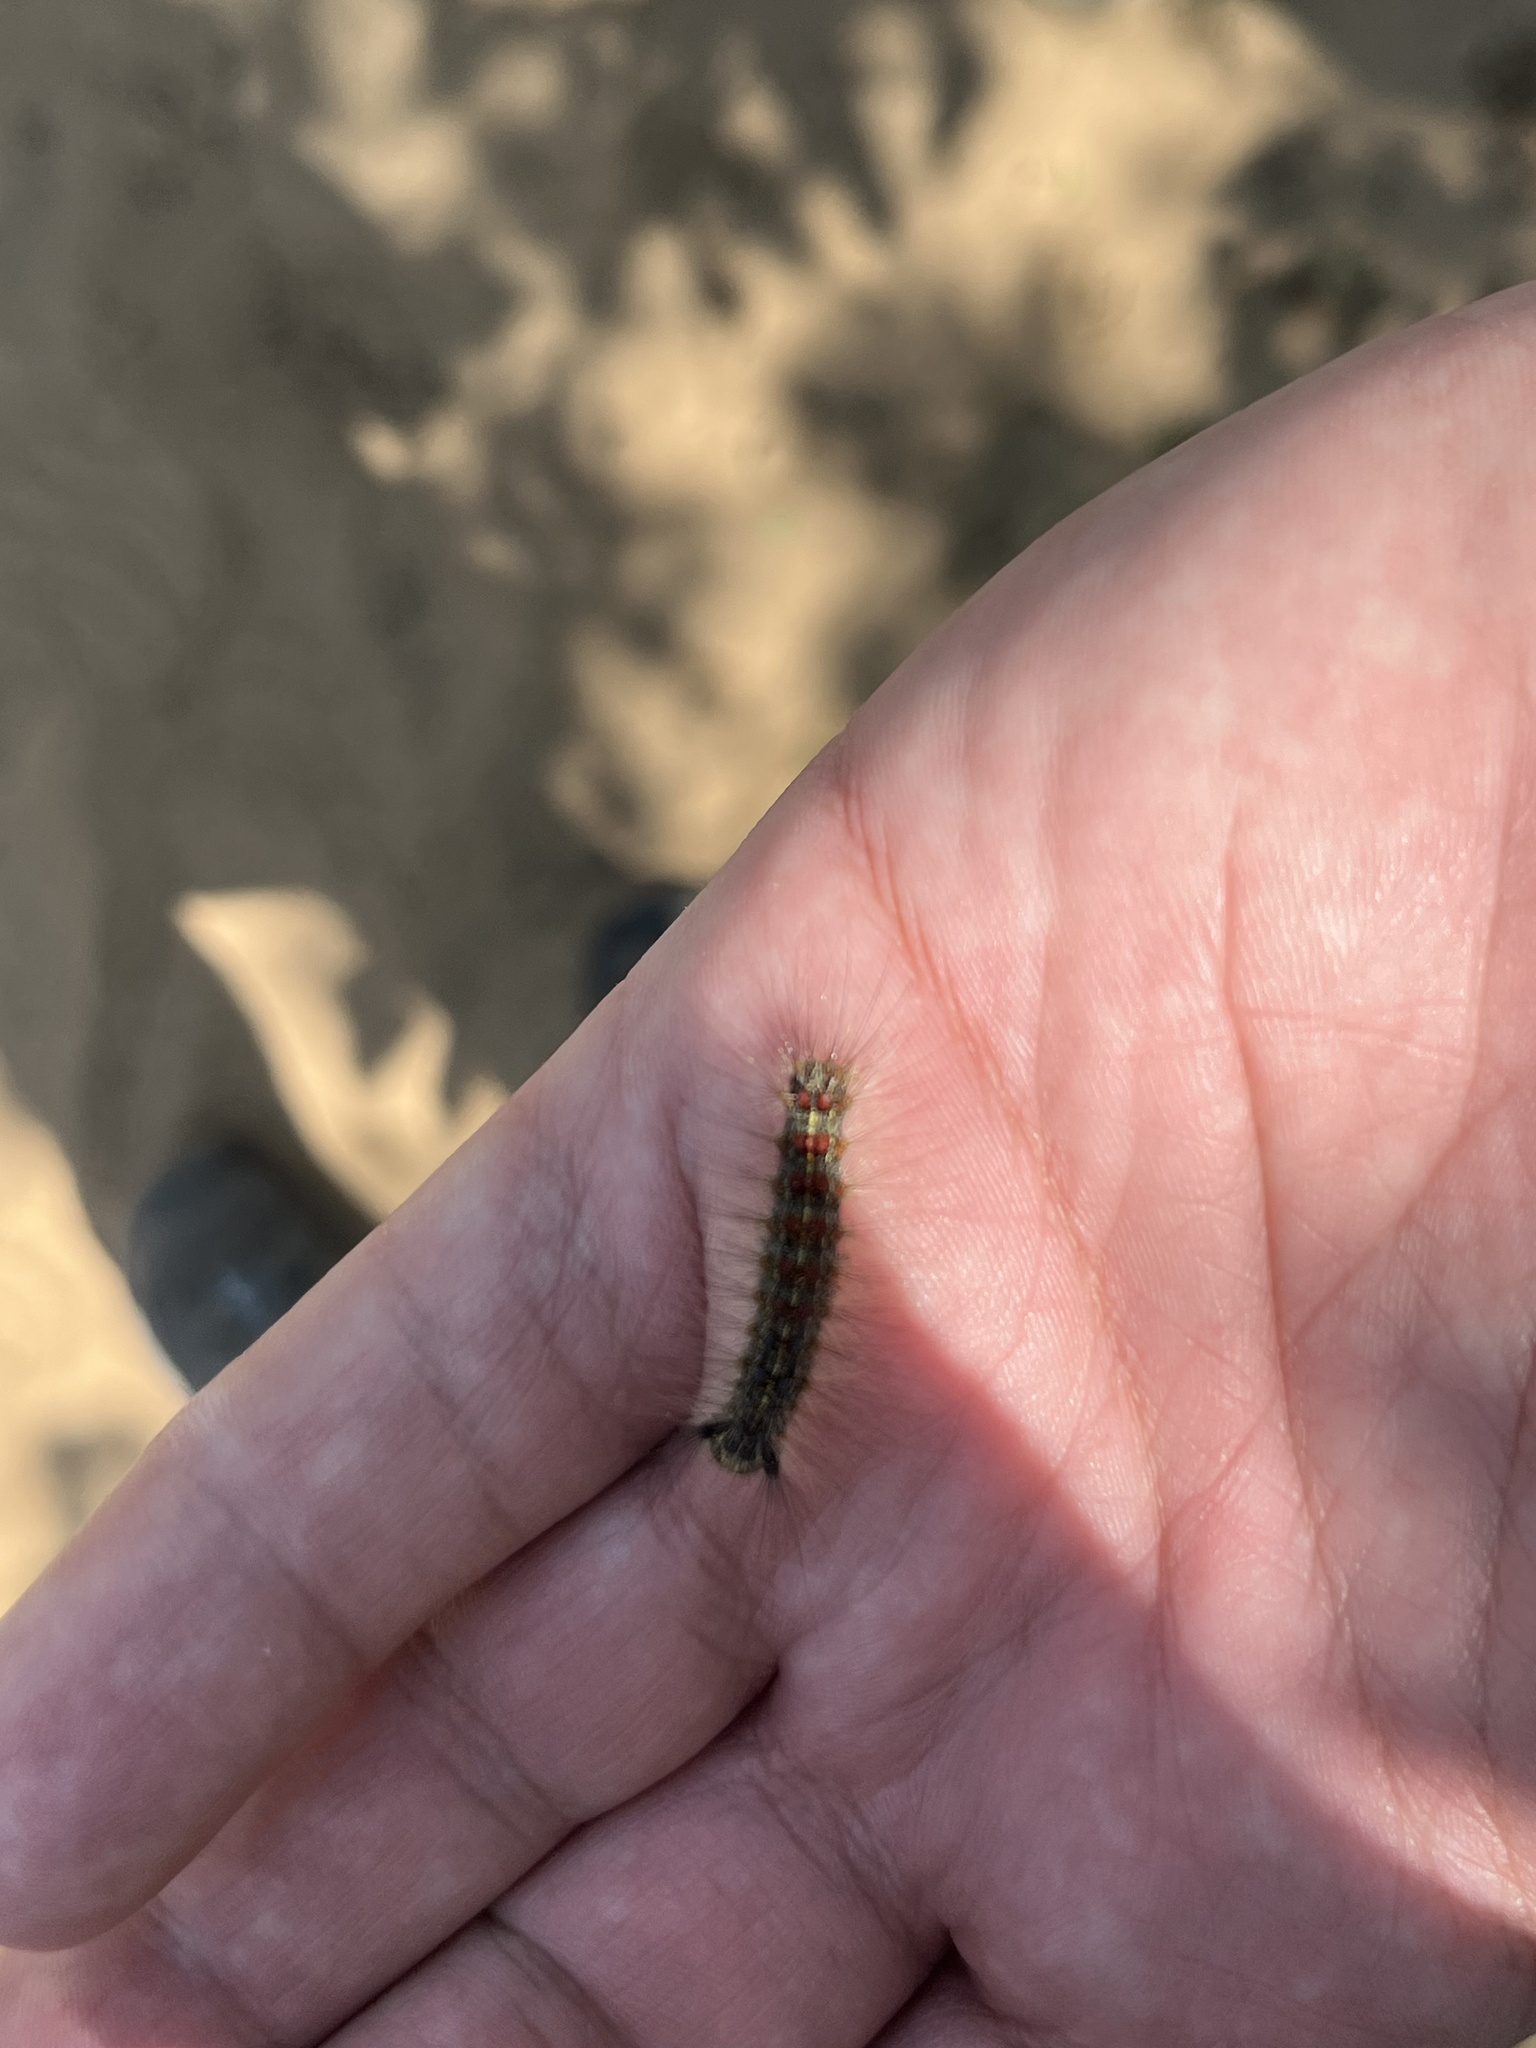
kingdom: Animalia
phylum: Arthropoda
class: Insecta
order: Lepidoptera
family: Erebidae
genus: Lymantria
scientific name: Lymantria dispar
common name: Gypsy moth
